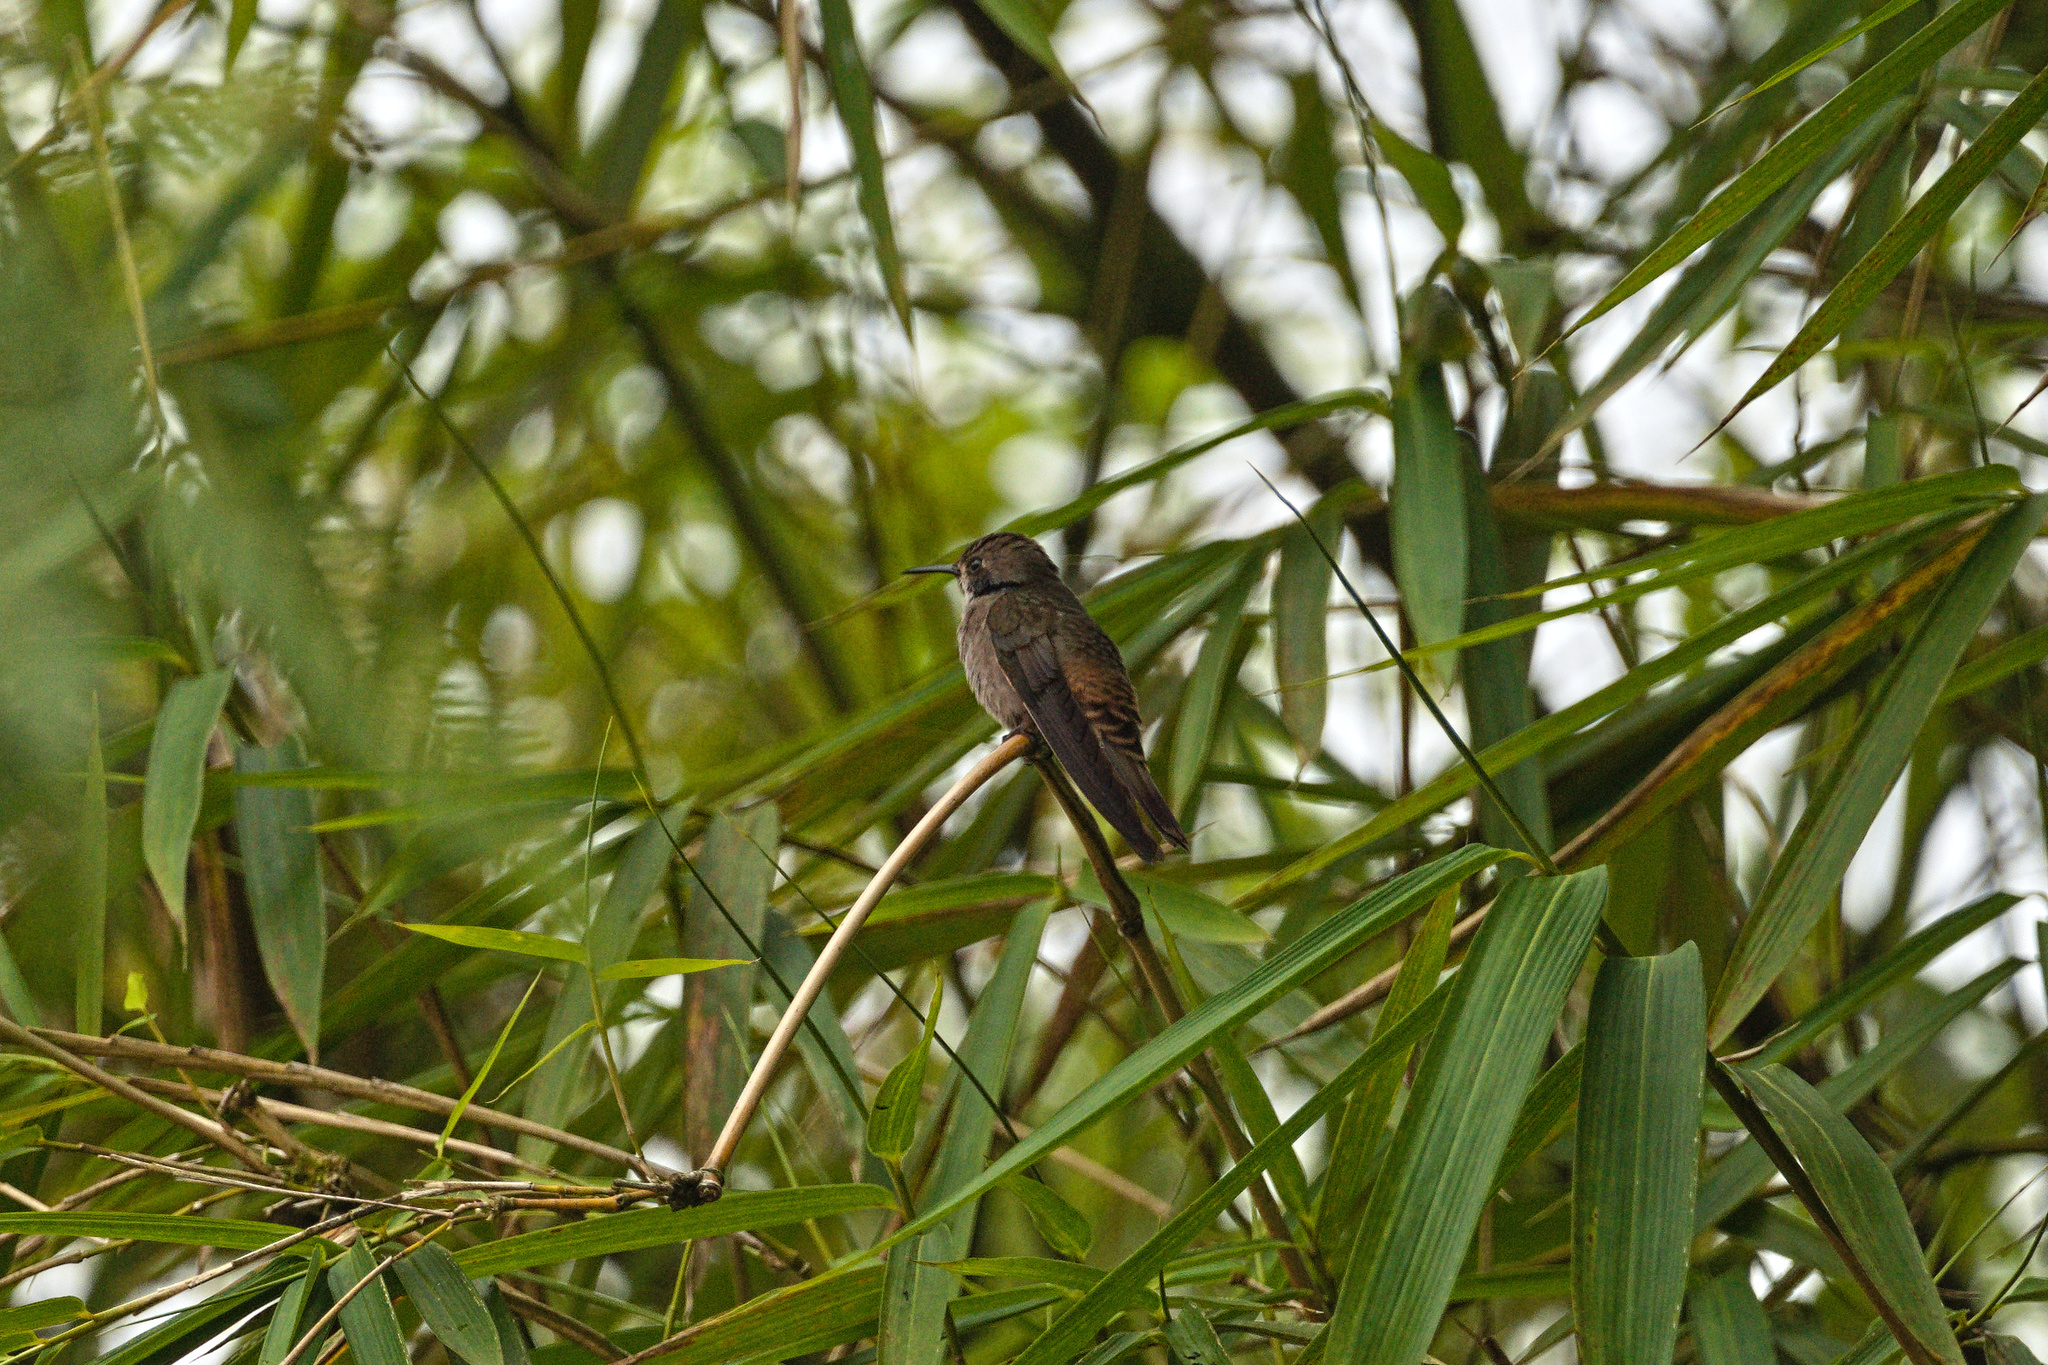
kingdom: Animalia
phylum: Chordata
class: Aves
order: Apodiformes
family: Trochilidae
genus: Colibri
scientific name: Colibri delphinae
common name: Brown violetear
